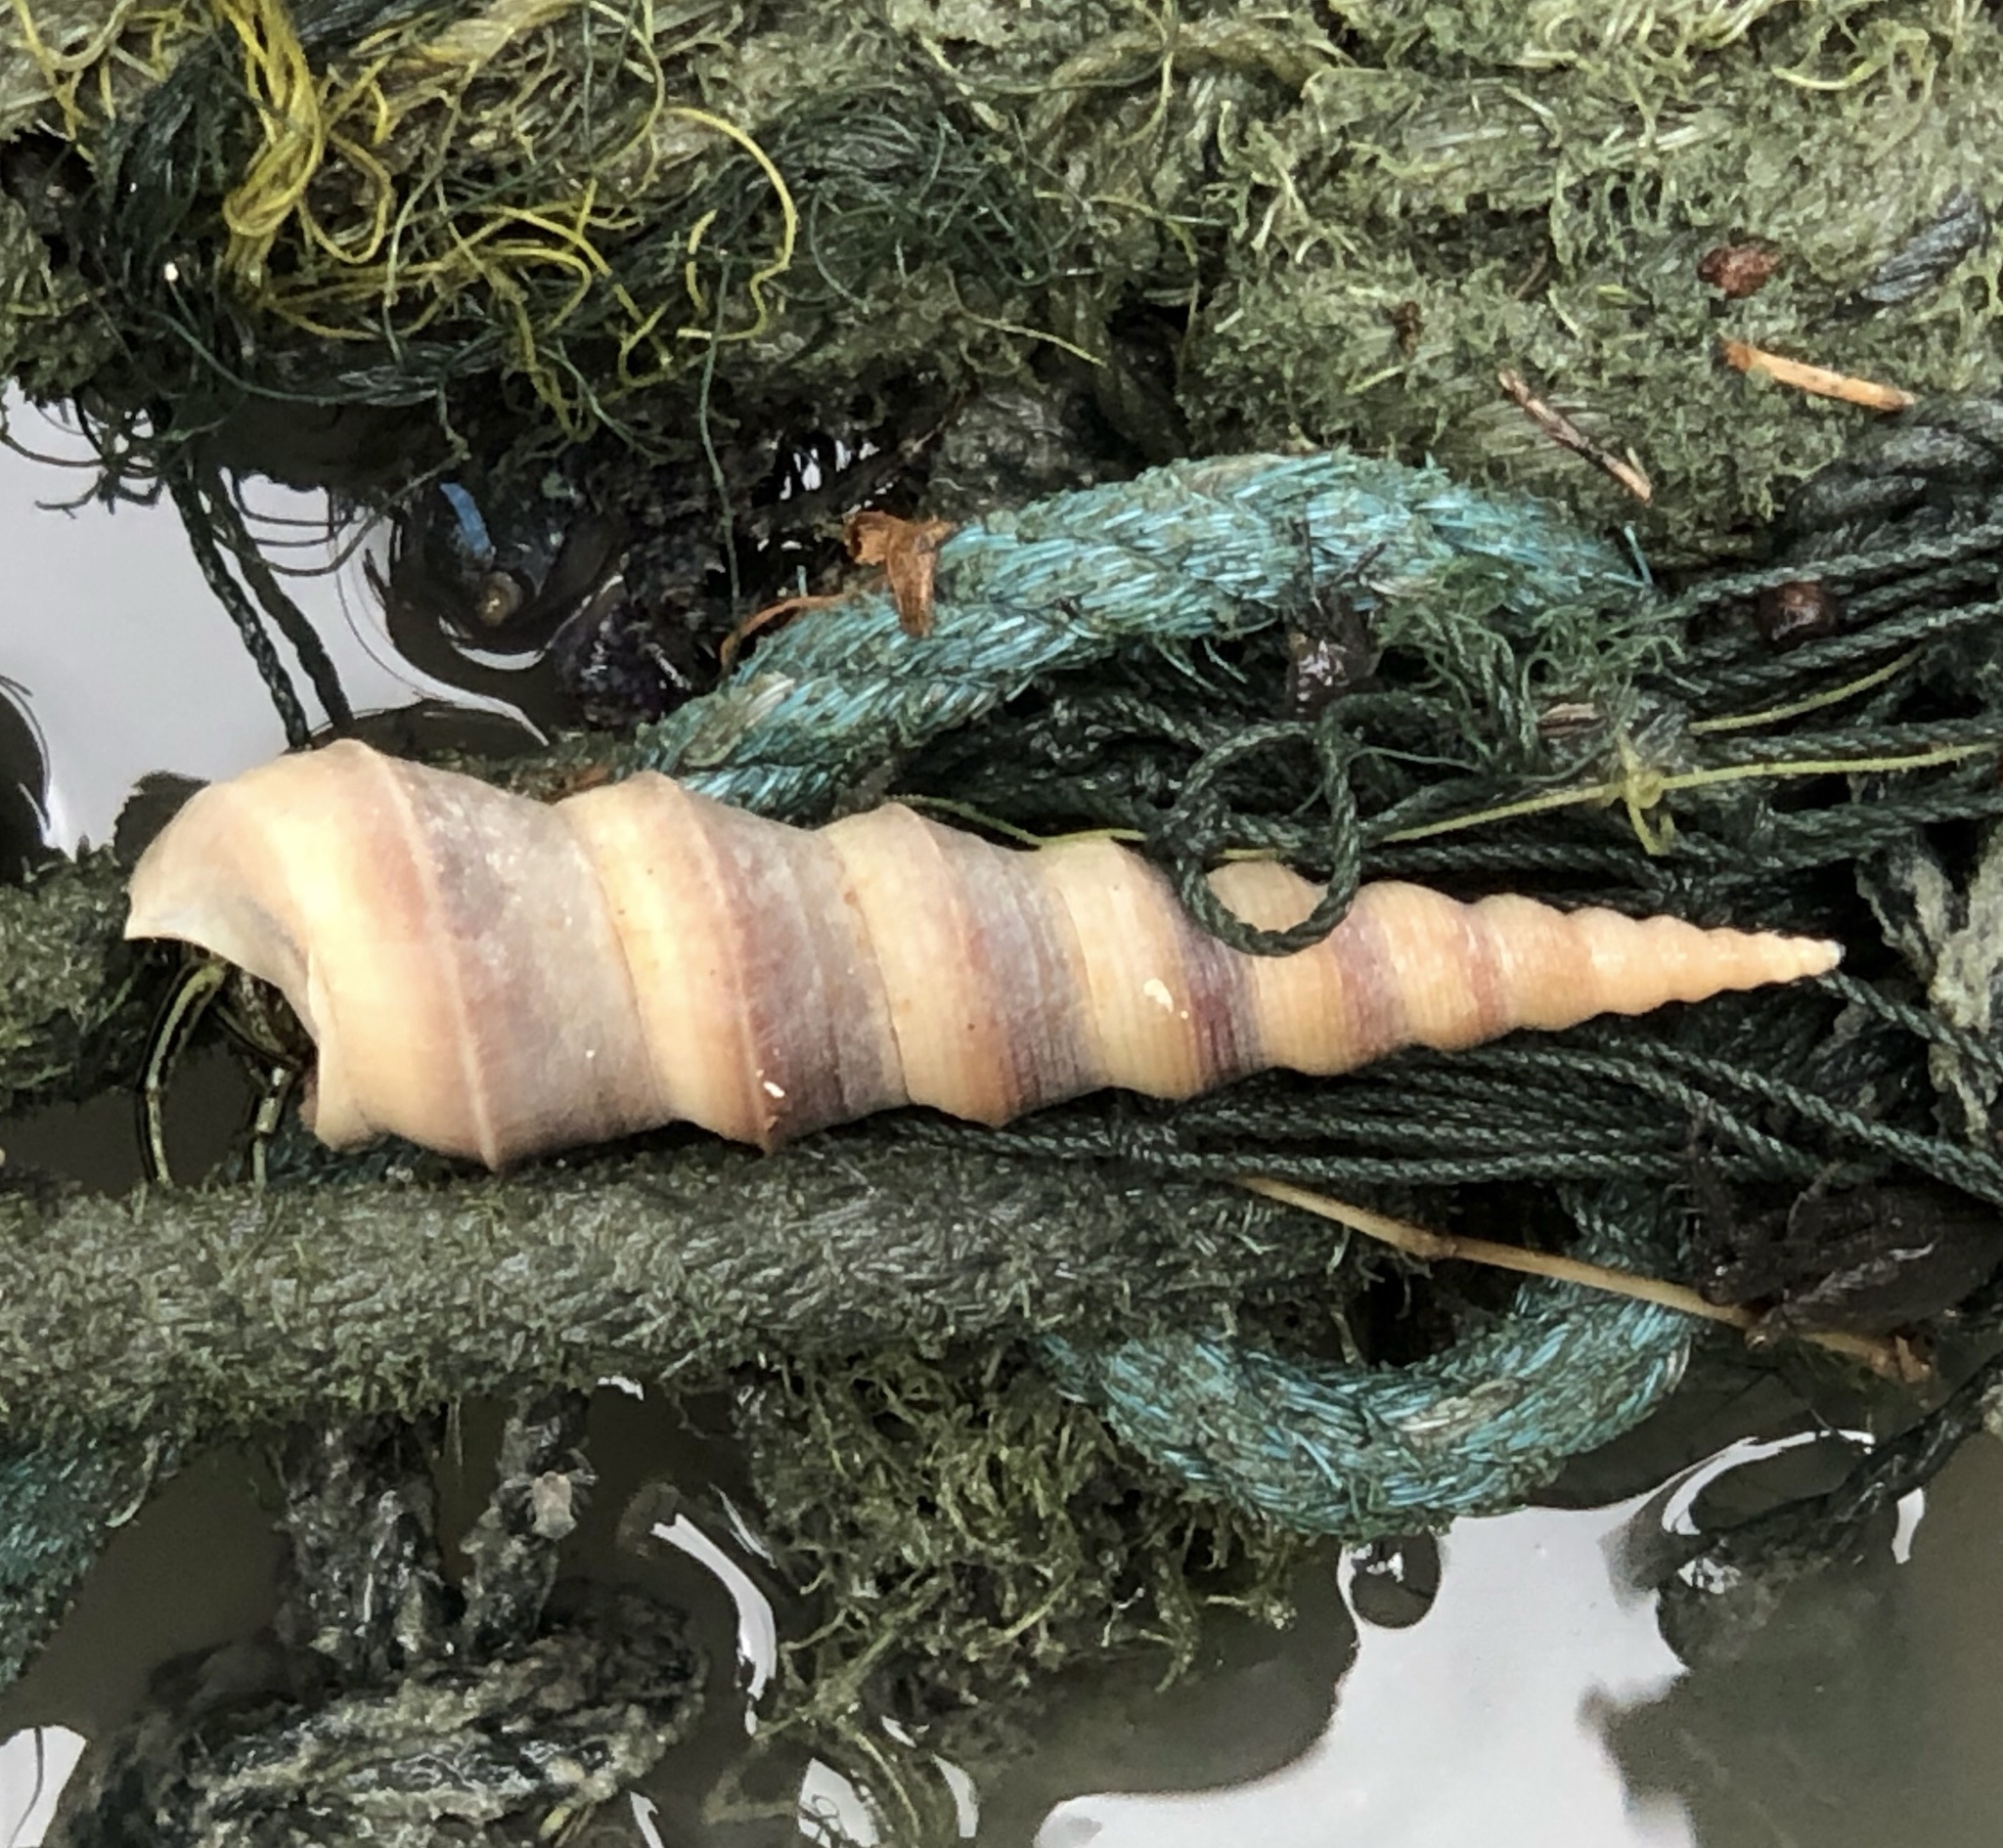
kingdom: Animalia
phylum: Mollusca
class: Gastropoda
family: Turritellidae
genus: Turritella
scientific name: Turritella duplicata
